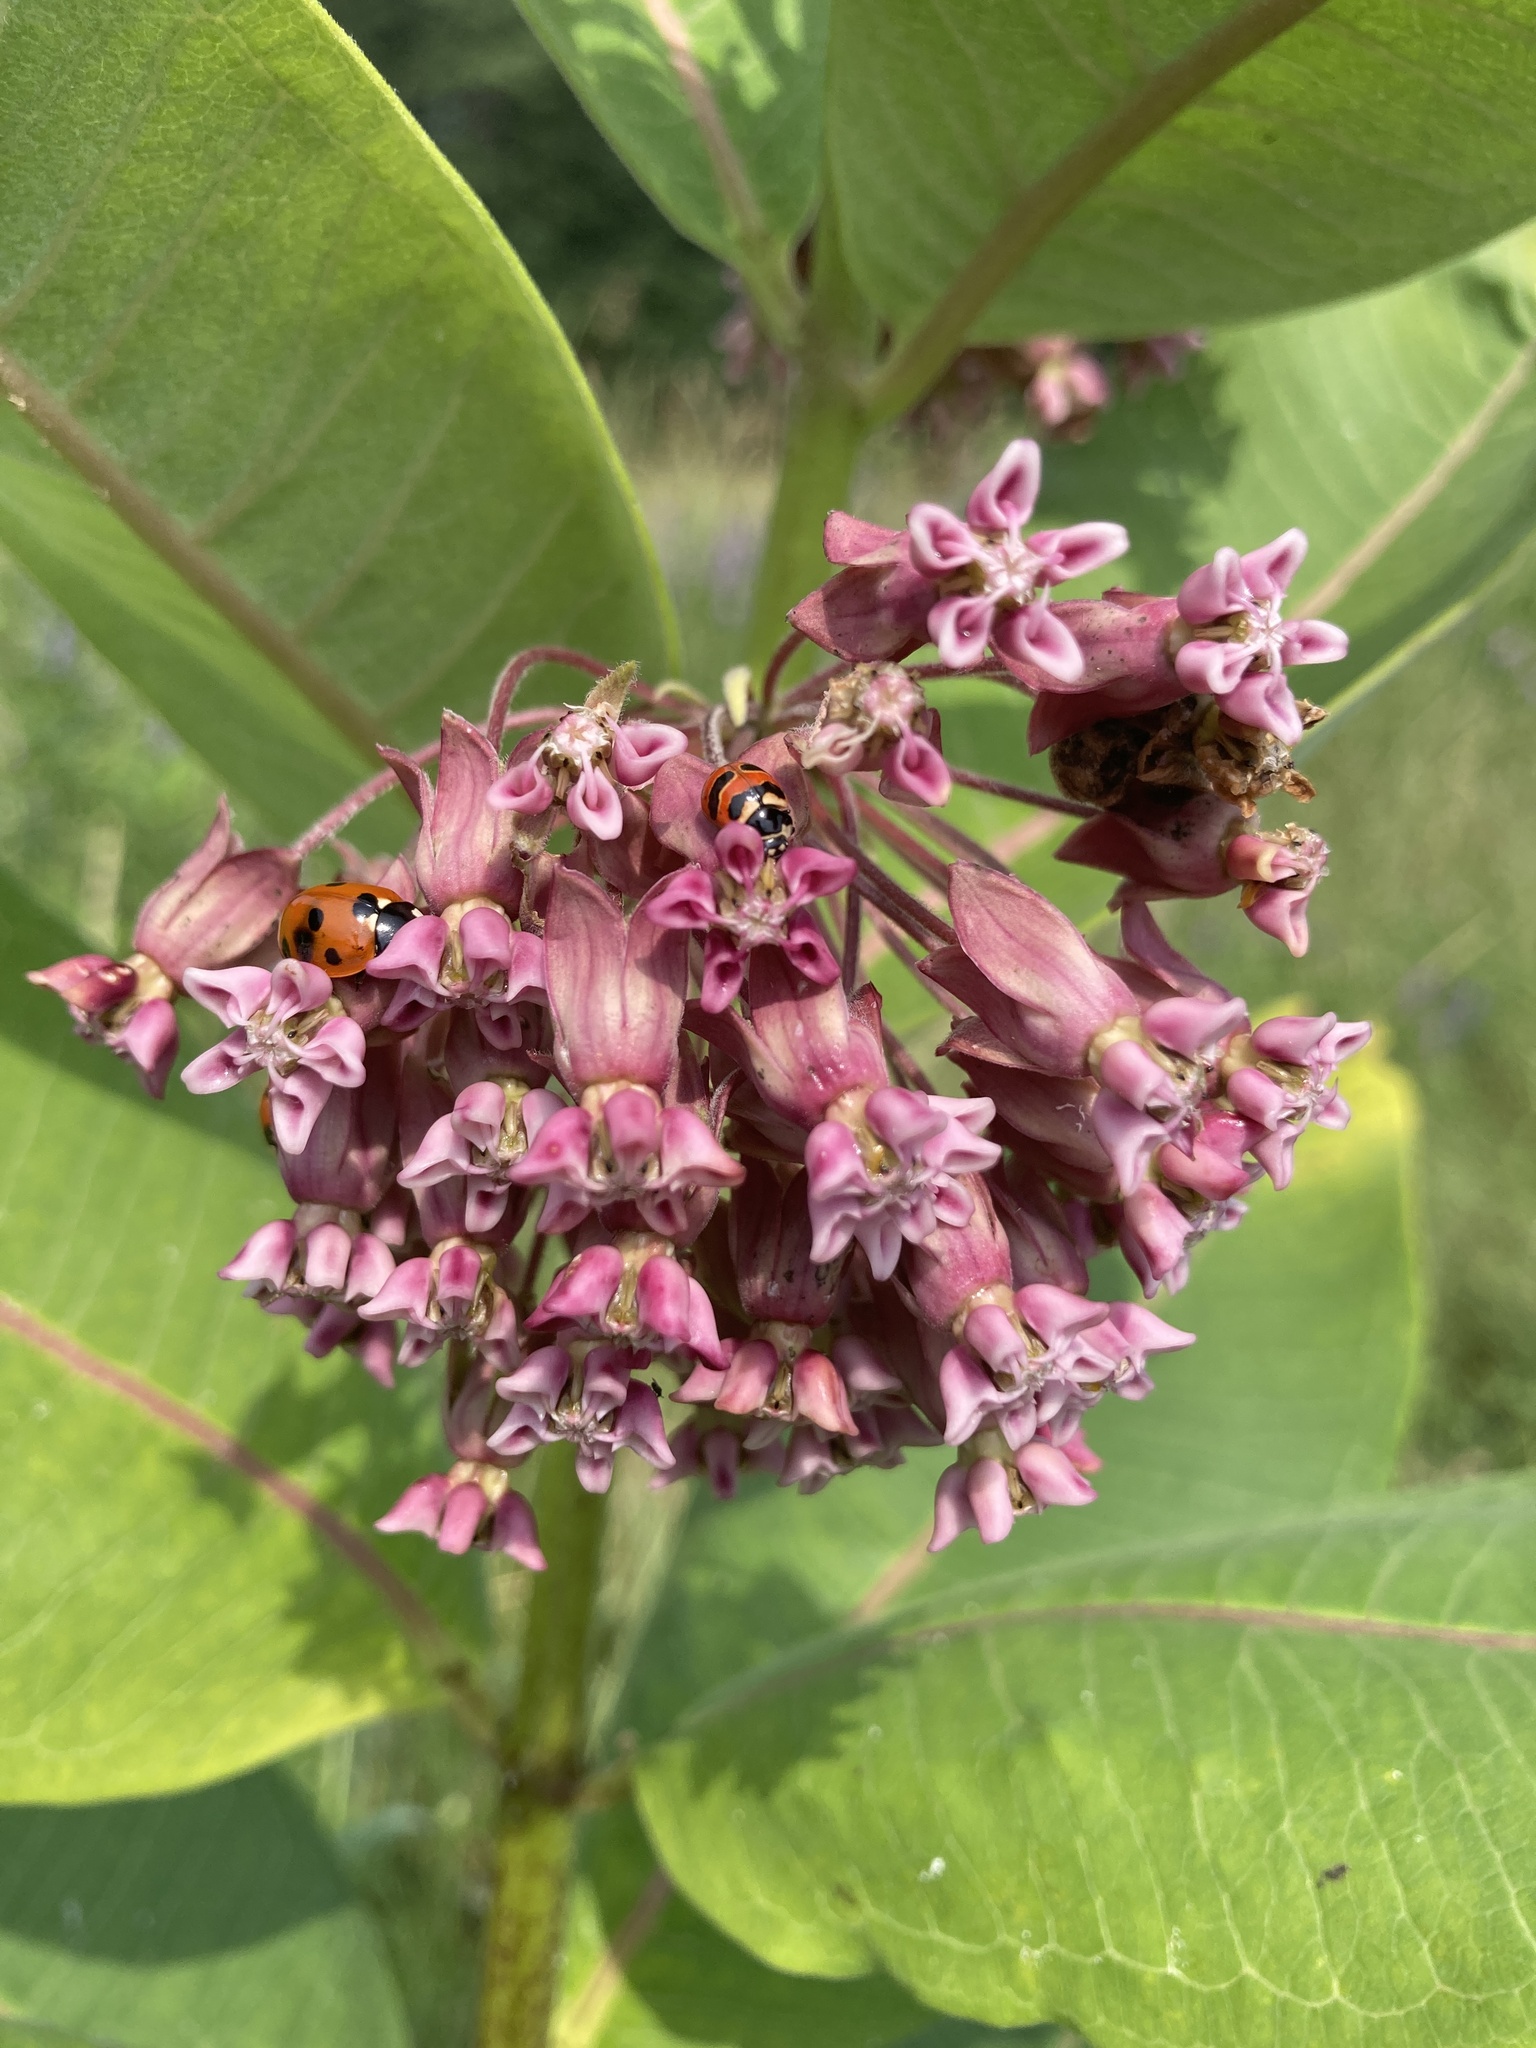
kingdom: Plantae
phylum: Tracheophyta
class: Magnoliopsida
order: Gentianales
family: Apocynaceae
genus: Asclepias
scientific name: Asclepias syriaca
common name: Common milkweed
